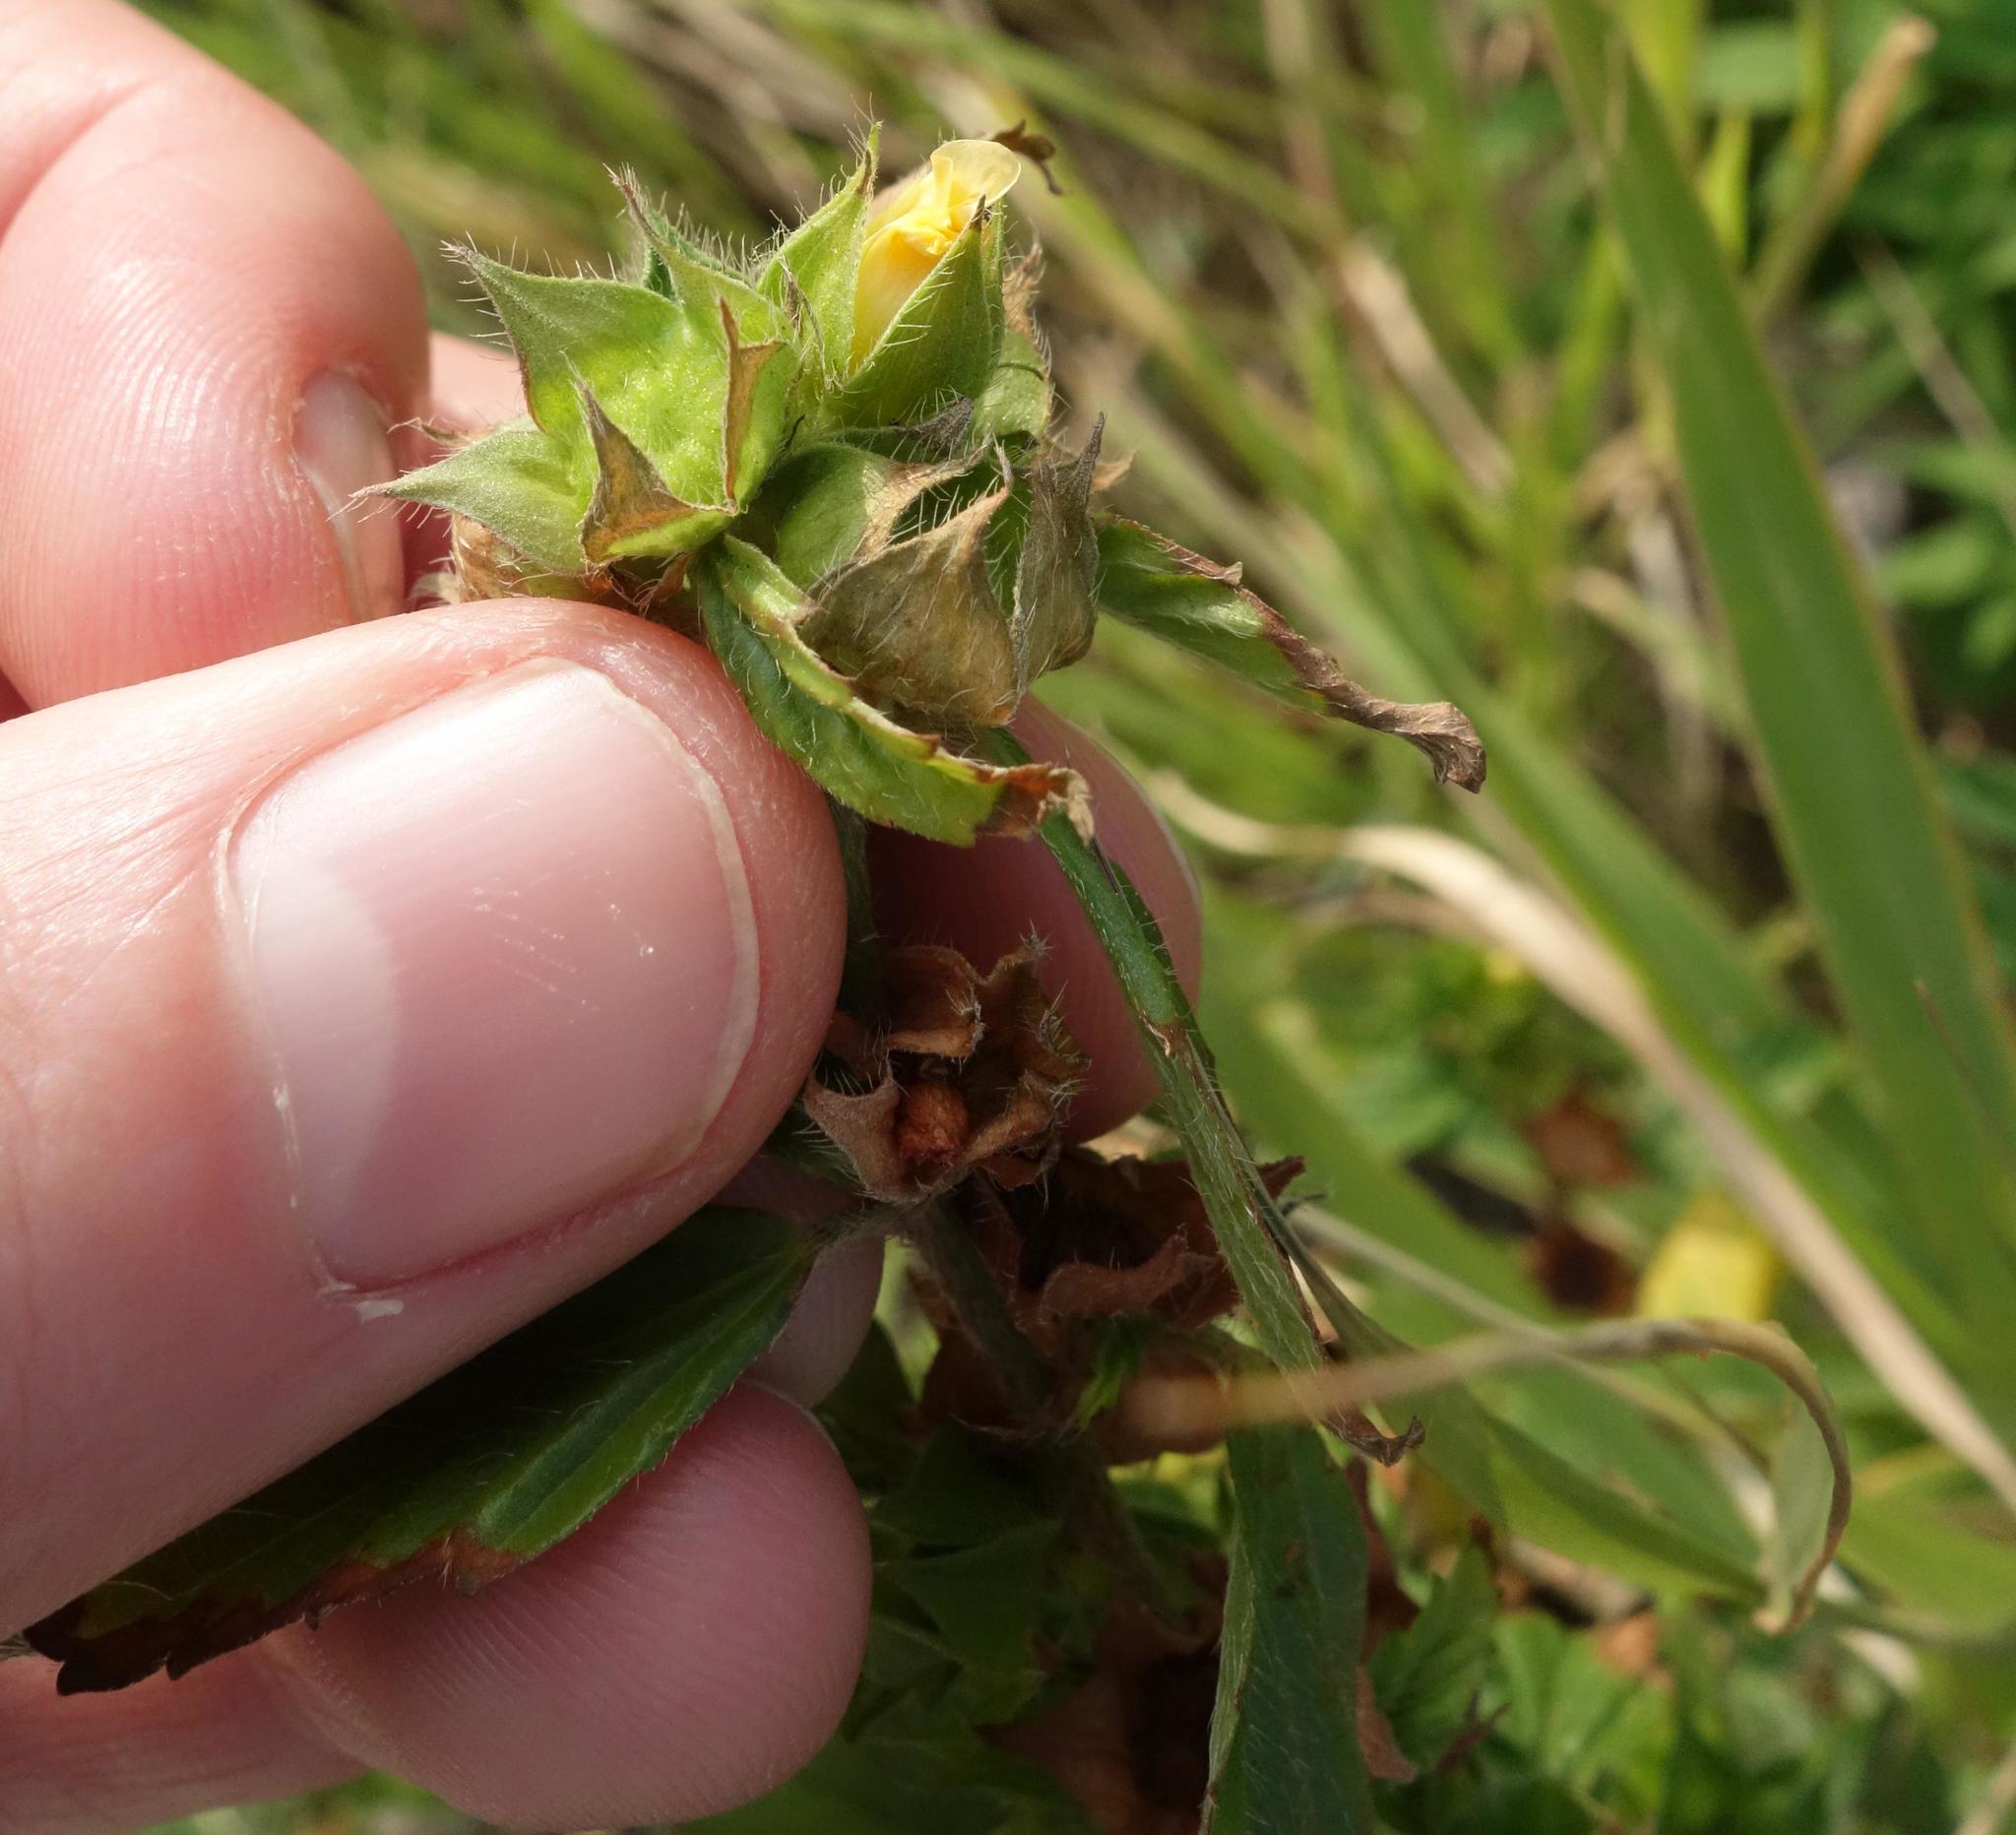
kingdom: Plantae
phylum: Tracheophyta
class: Magnoliopsida
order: Malvales
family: Malvaceae
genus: Malvastrum
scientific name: Malvastrum coromandelianum
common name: Threelobe false mallow
